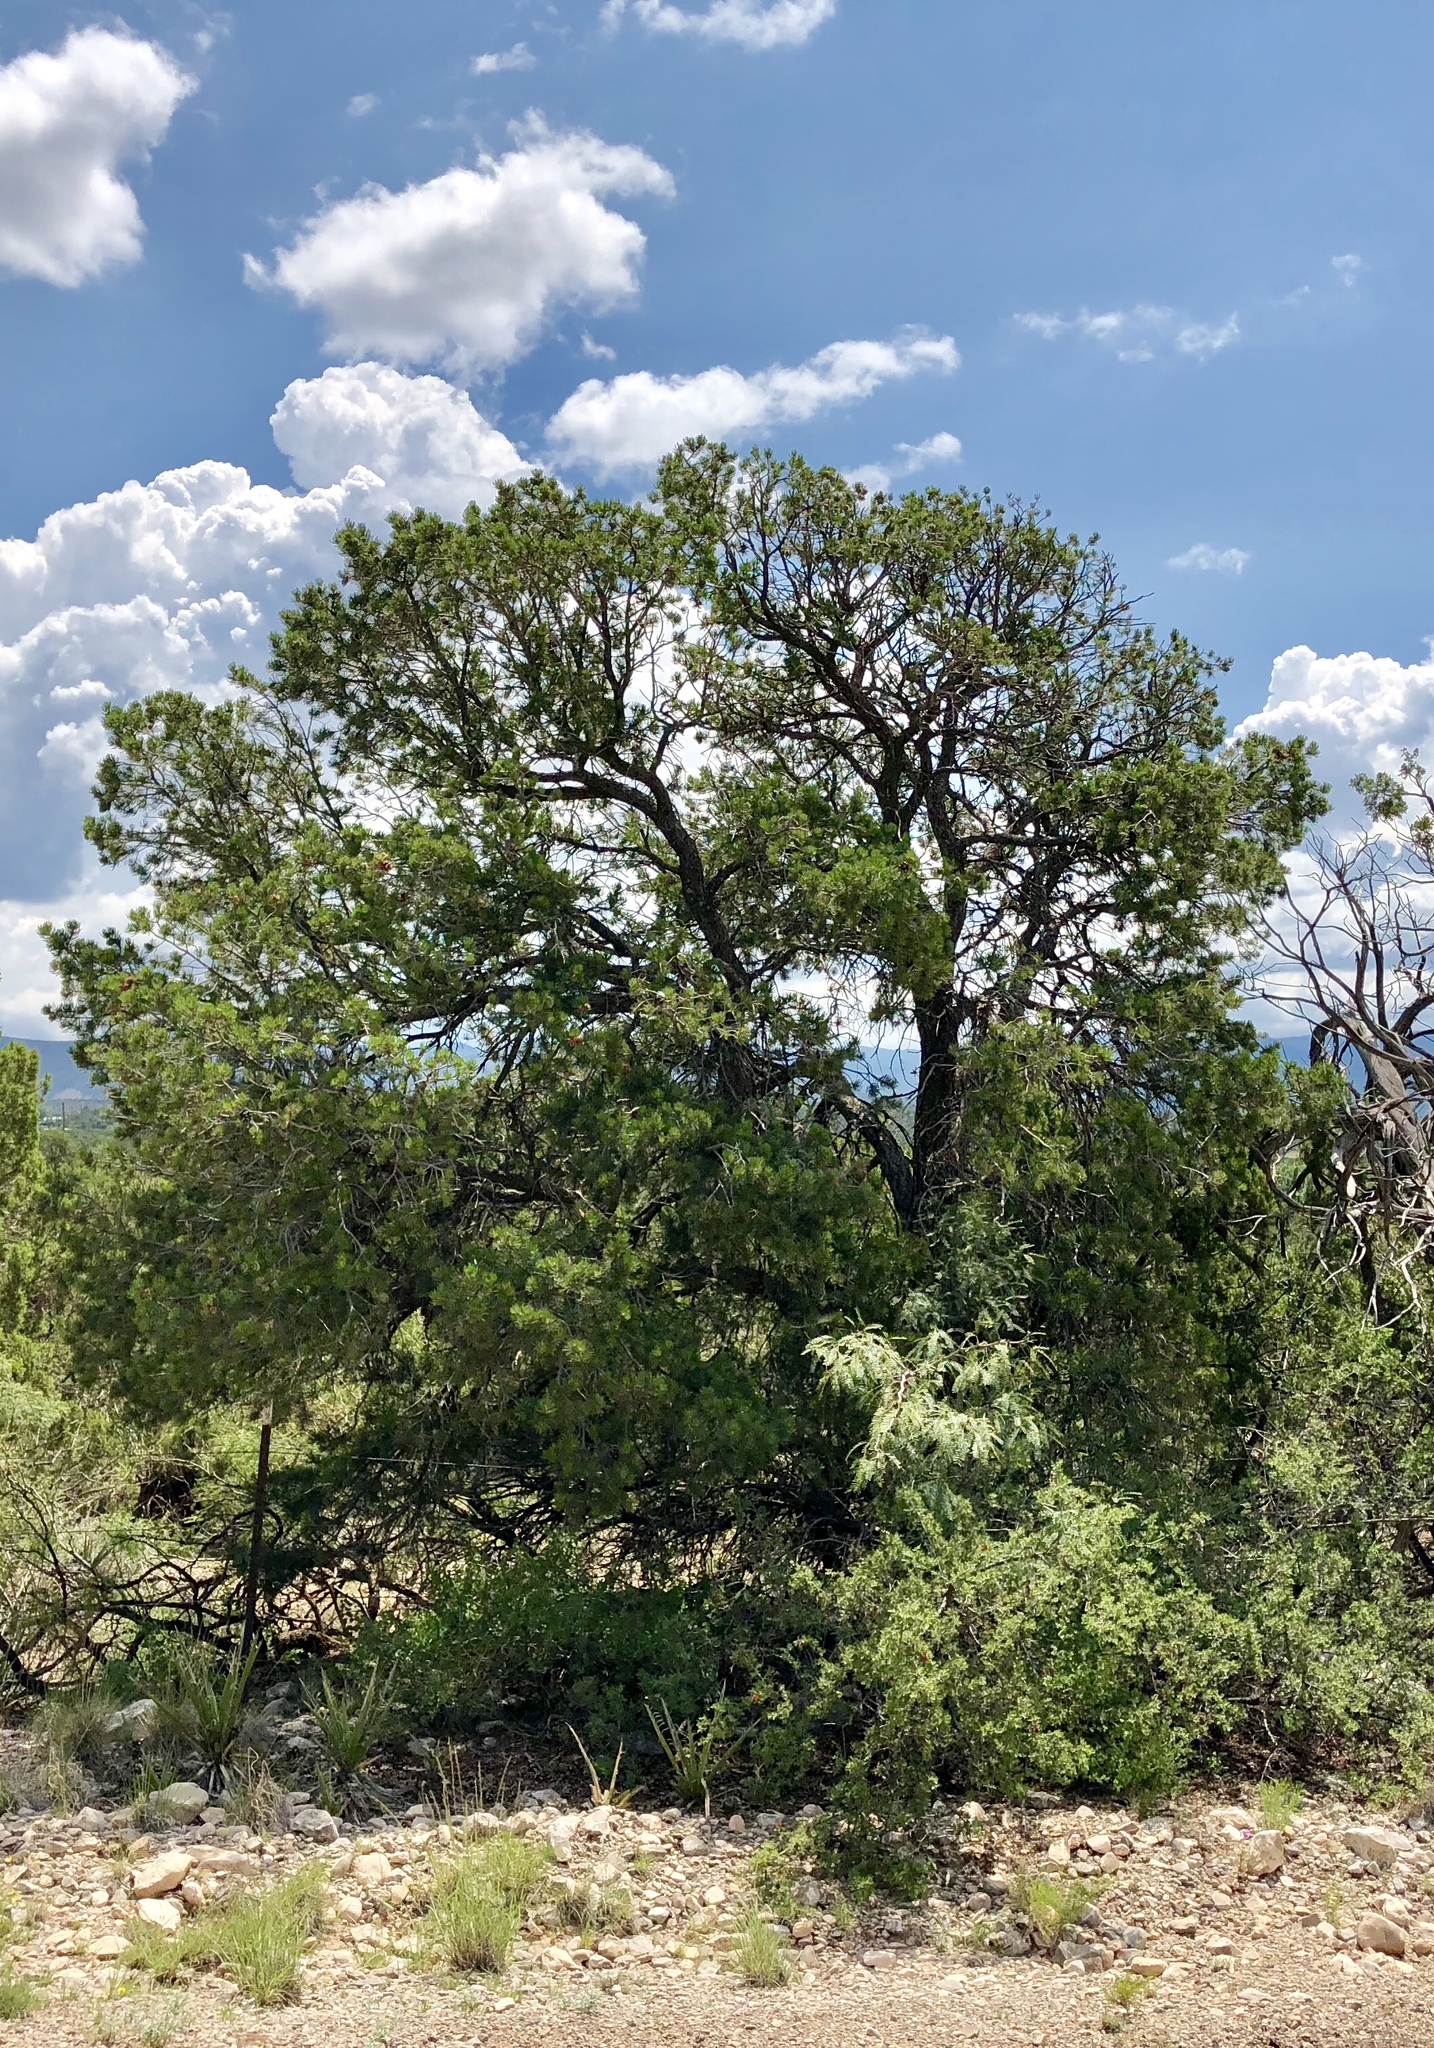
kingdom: Plantae
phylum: Tracheophyta
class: Pinopsida
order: Pinales
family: Pinaceae
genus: Pinus
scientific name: Pinus edulis
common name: Colorado pinyon
